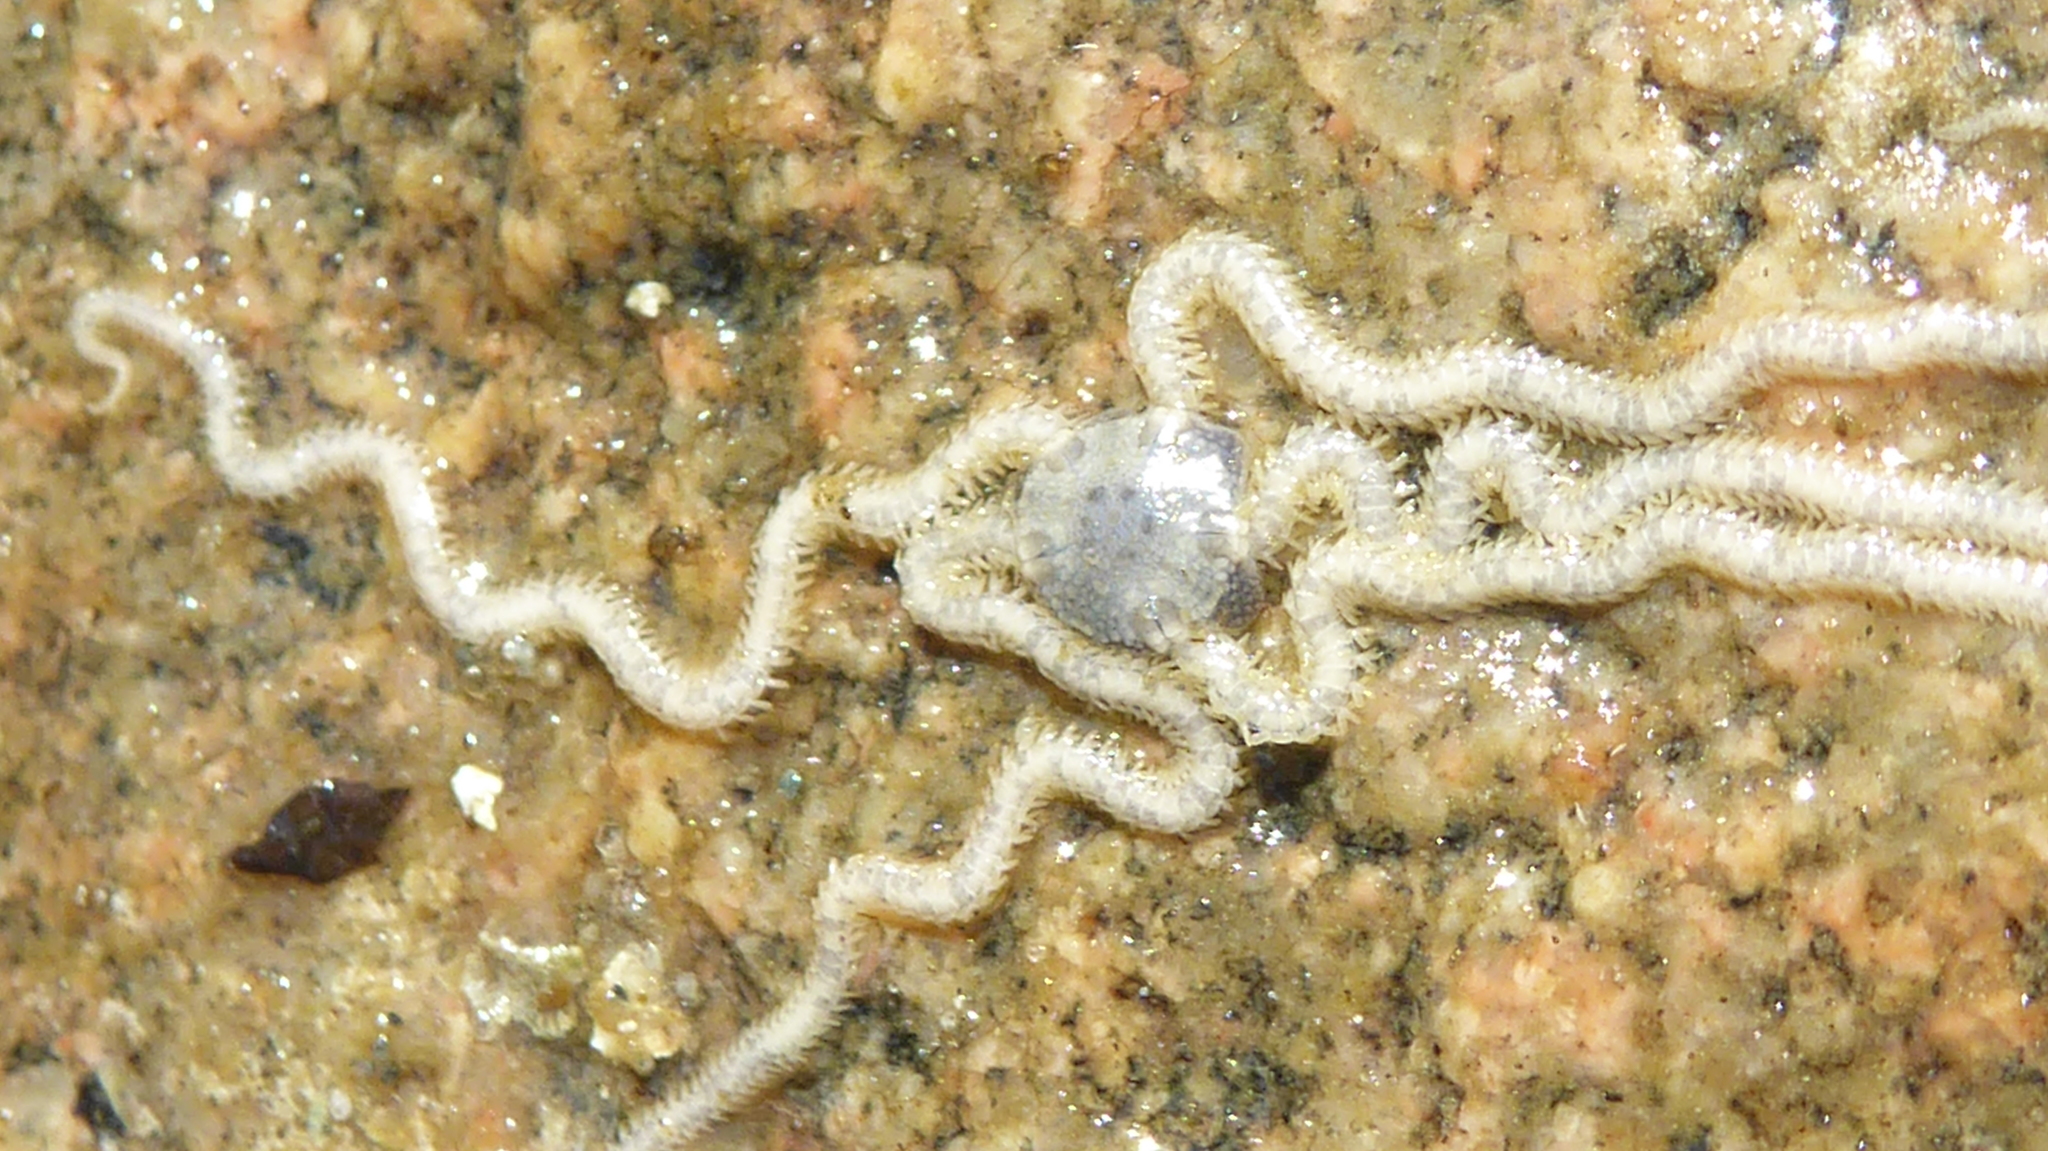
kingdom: Animalia
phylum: Echinodermata
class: Ophiuroidea
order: Amphilepidida
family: Amphiuridae
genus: Amphiodia
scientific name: Amphiodia occidentalis
